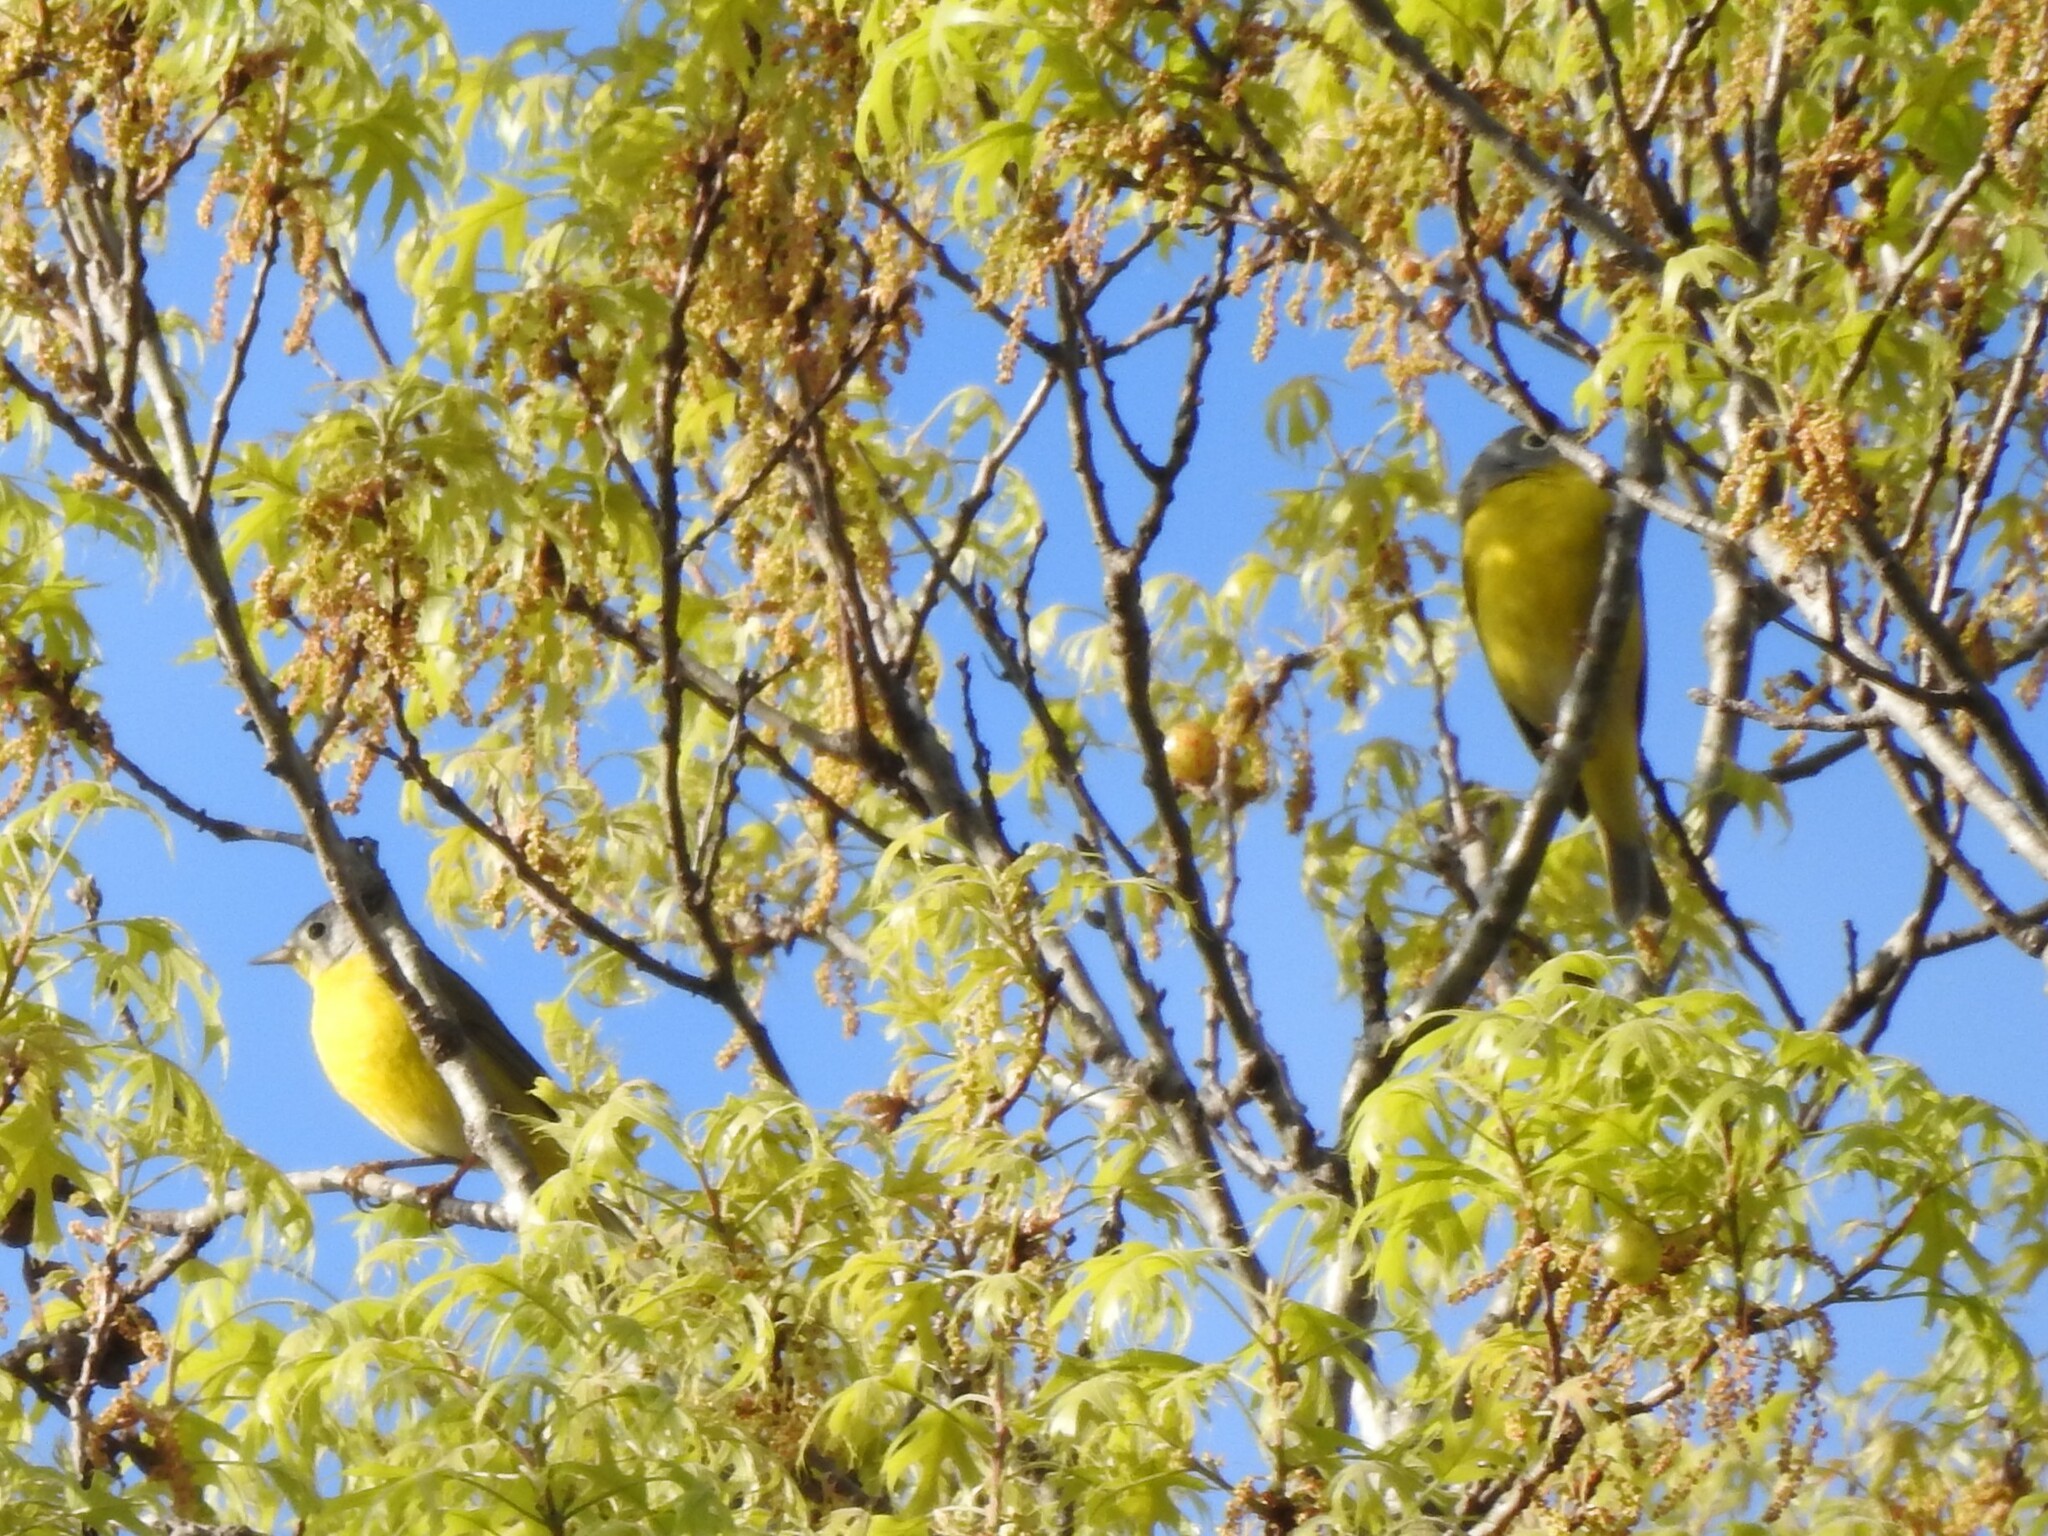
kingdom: Animalia
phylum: Chordata
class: Aves
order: Passeriformes
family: Parulidae
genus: Leiothlypis
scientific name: Leiothlypis ruficapilla
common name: Nashville warbler
